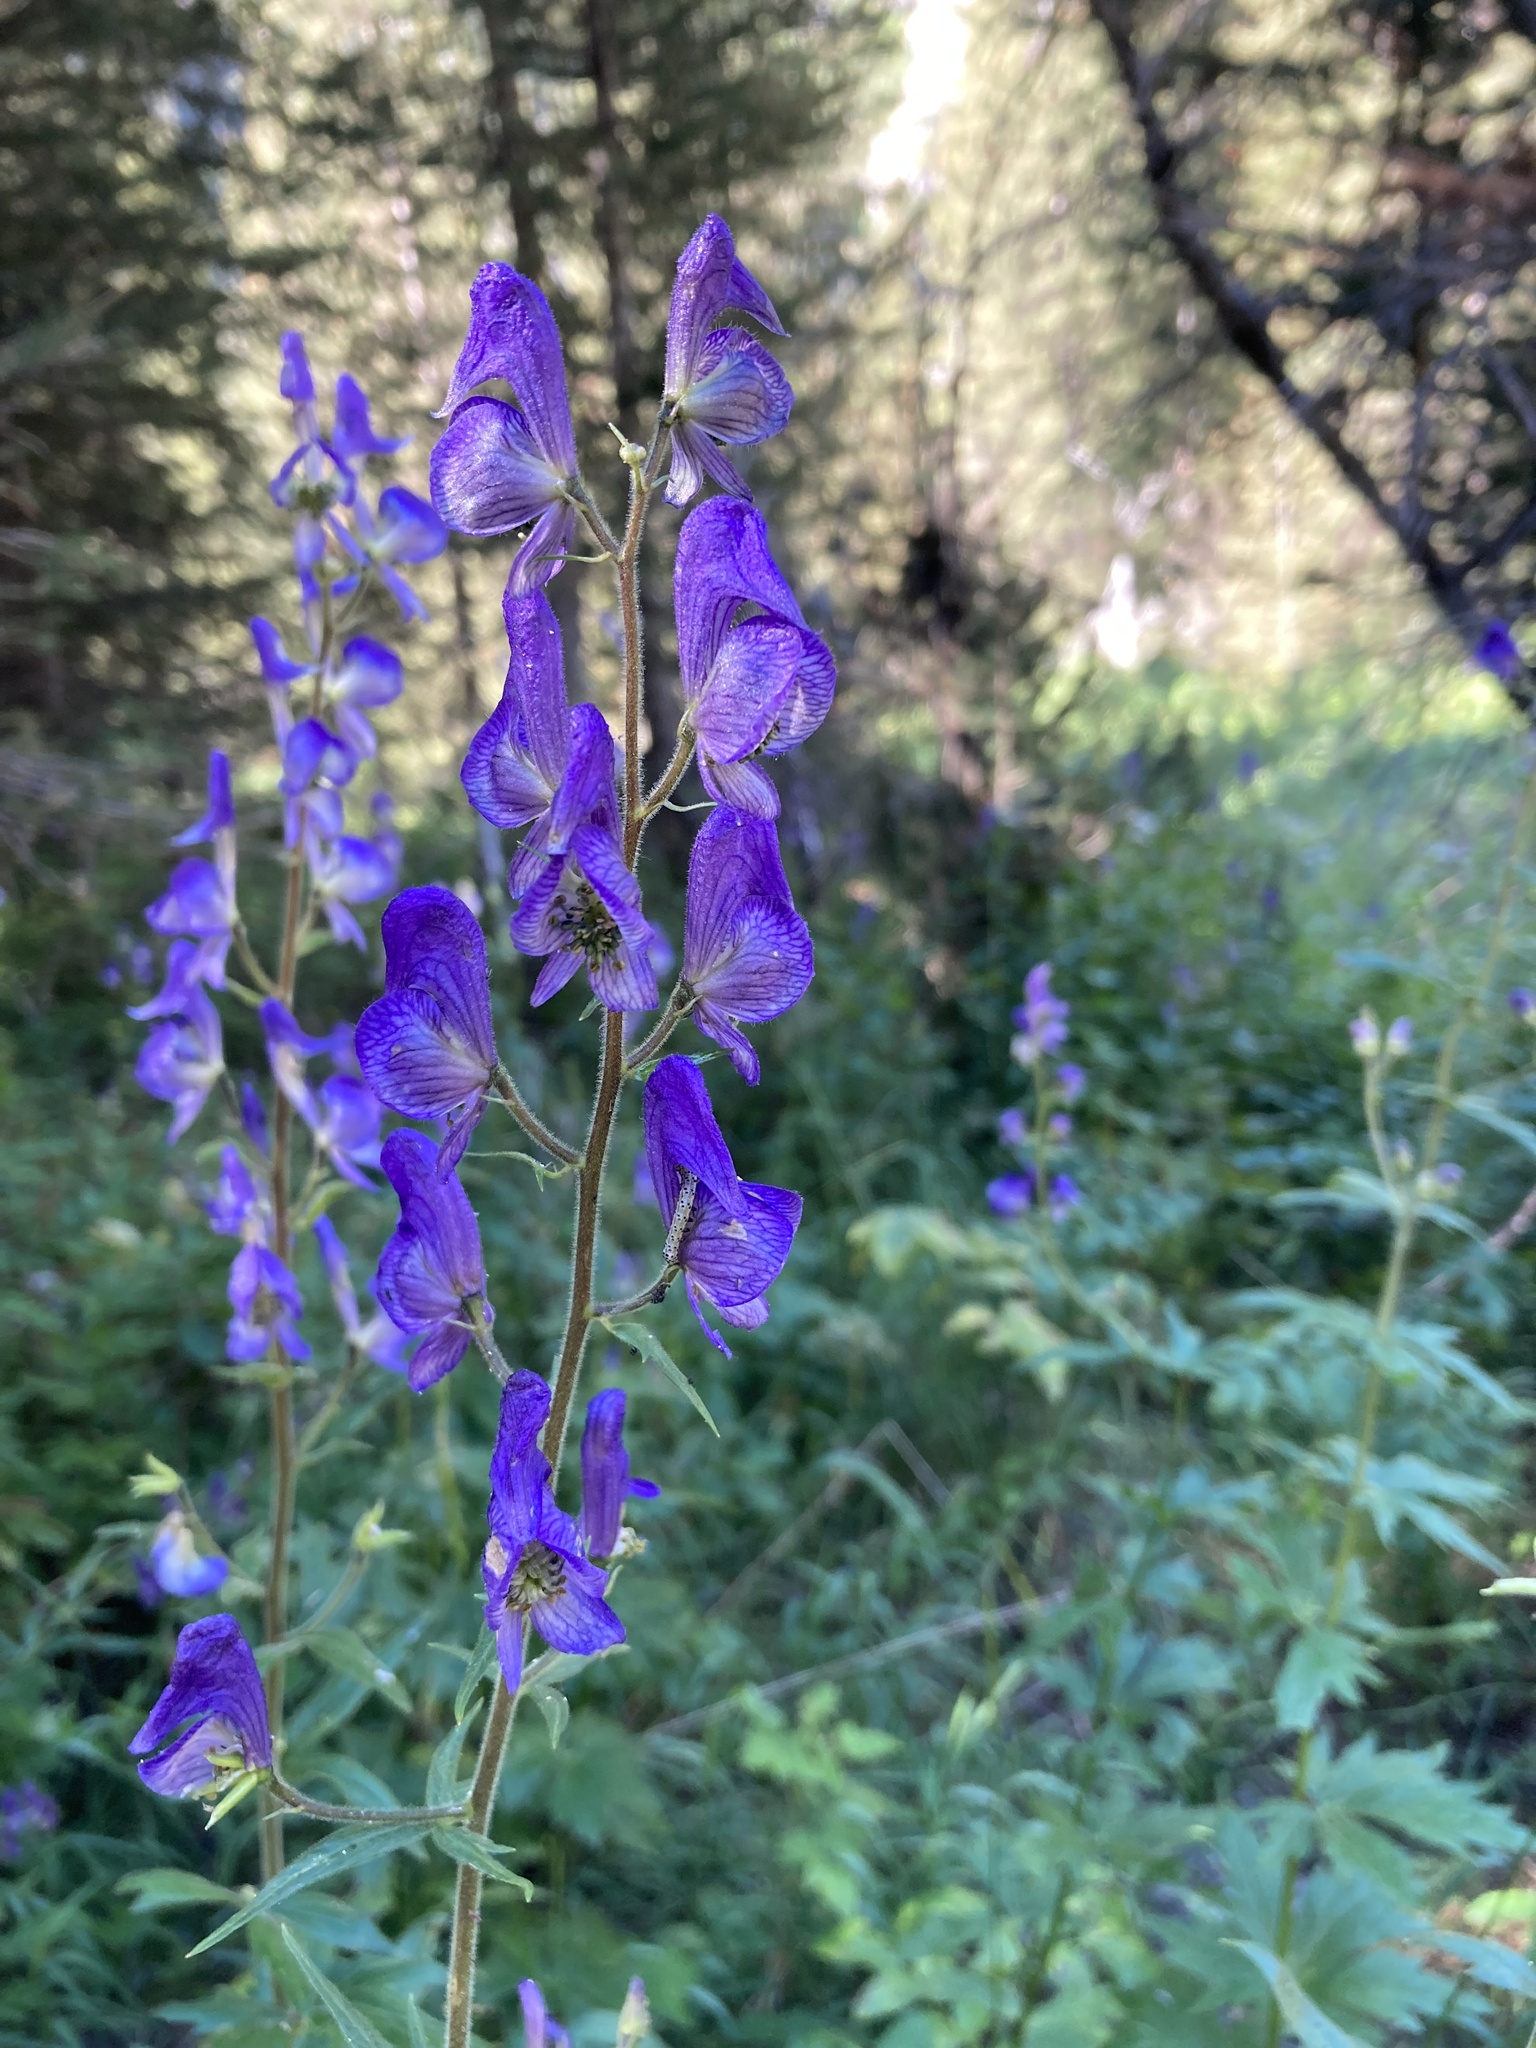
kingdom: Plantae
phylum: Tracheophyta
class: Magnoliopsida
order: Ranunculales
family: Ranunculaceae
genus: Aconitum
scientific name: Aconitum columbianum
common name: Columbia aconite
